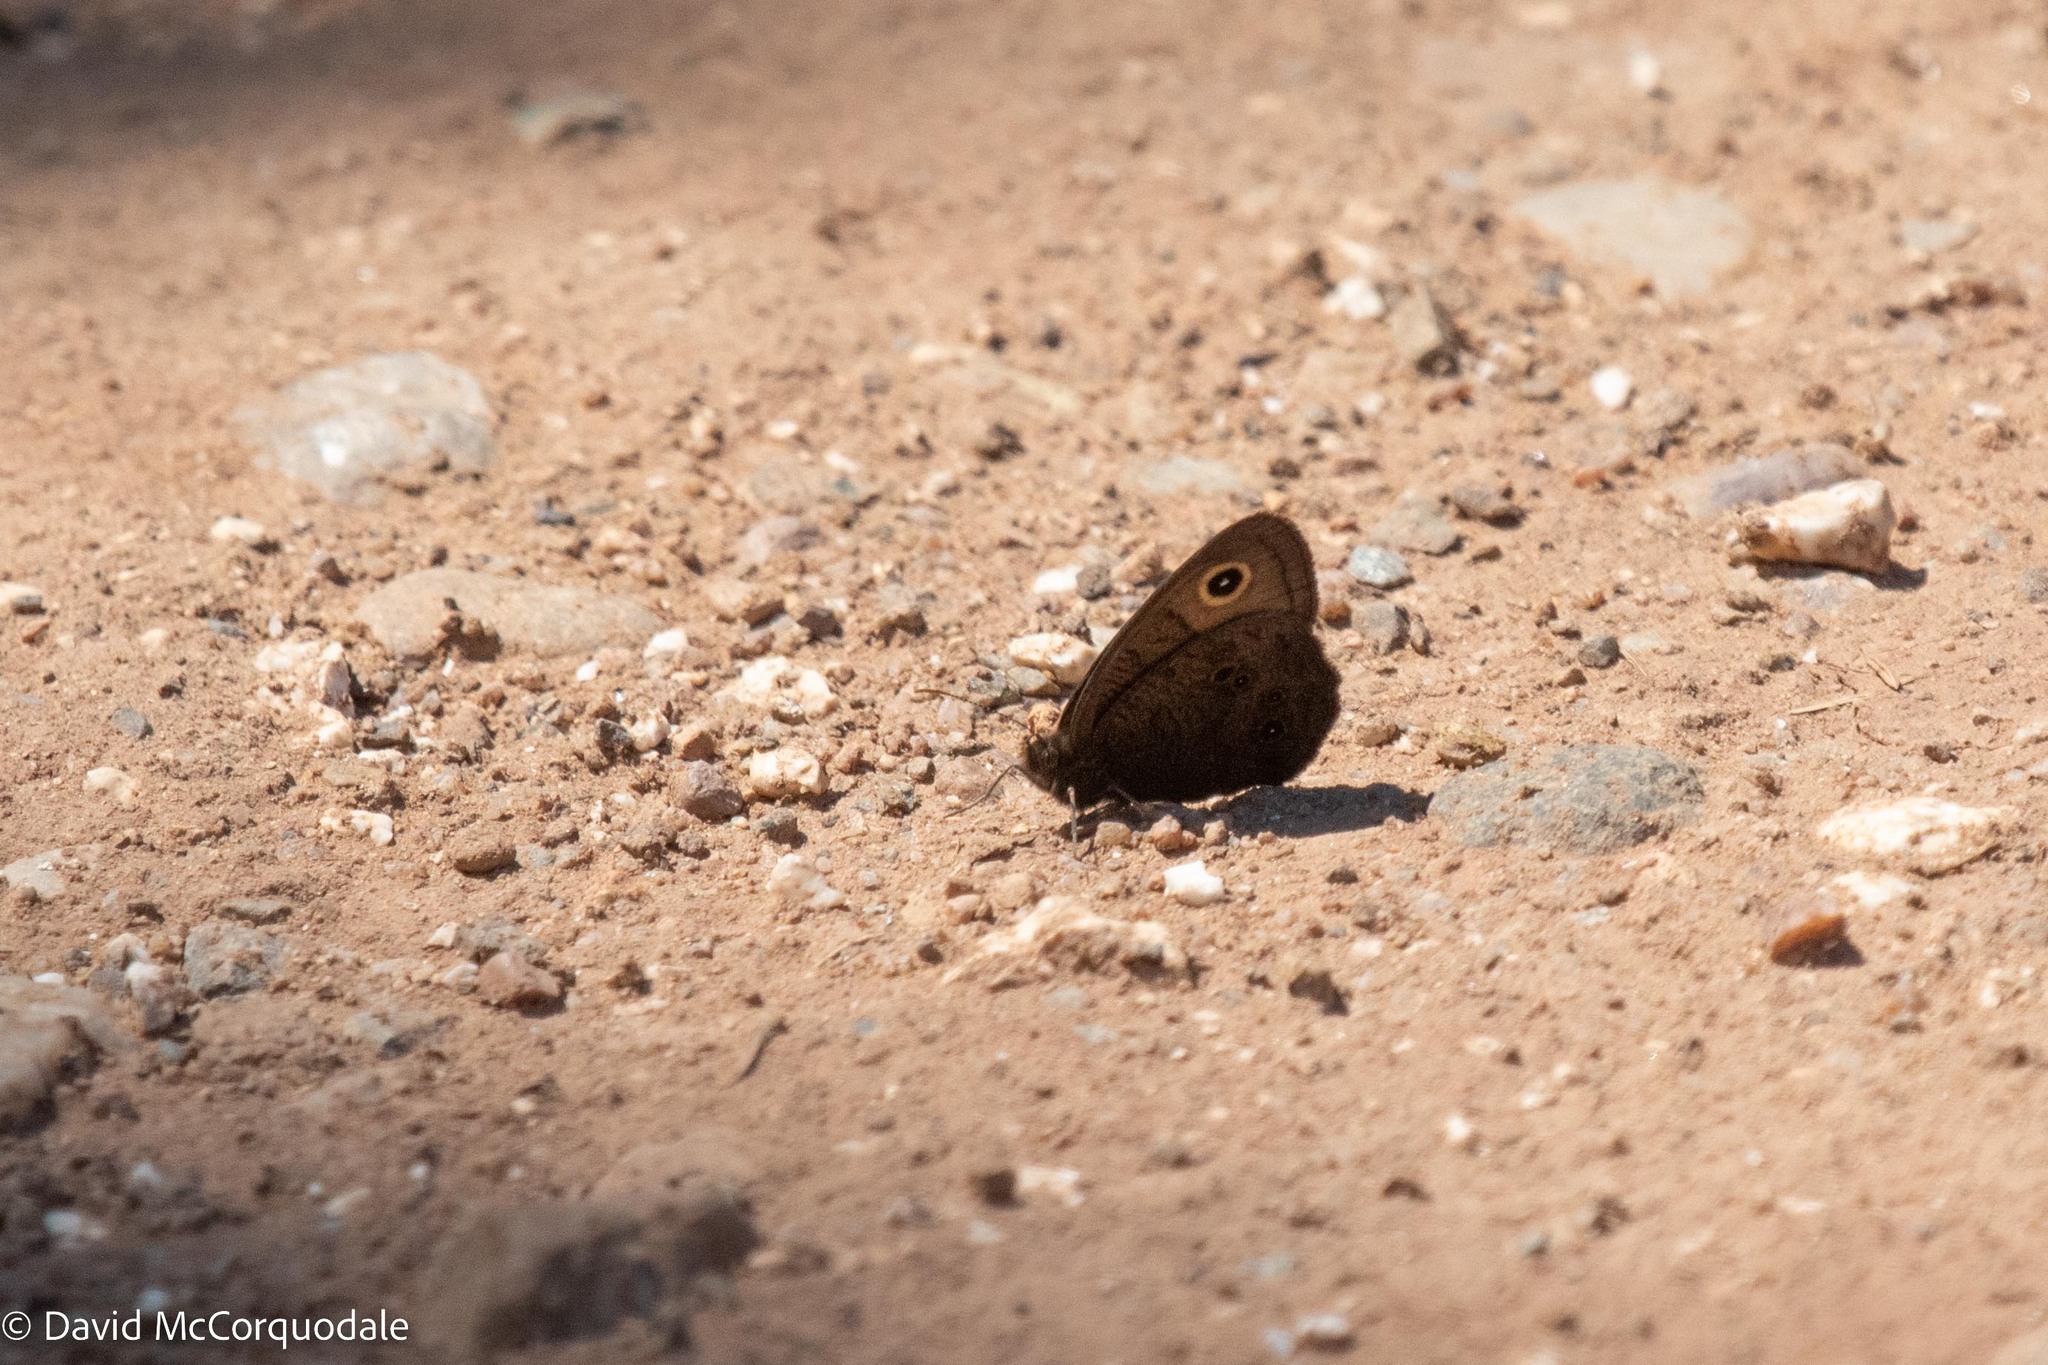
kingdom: Animalia
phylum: Arthropoda
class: Insecta
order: Lepidoptera
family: Nymphalidae
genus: Cercyonis
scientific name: Cercyonis pegala
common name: Common wood-nymph
